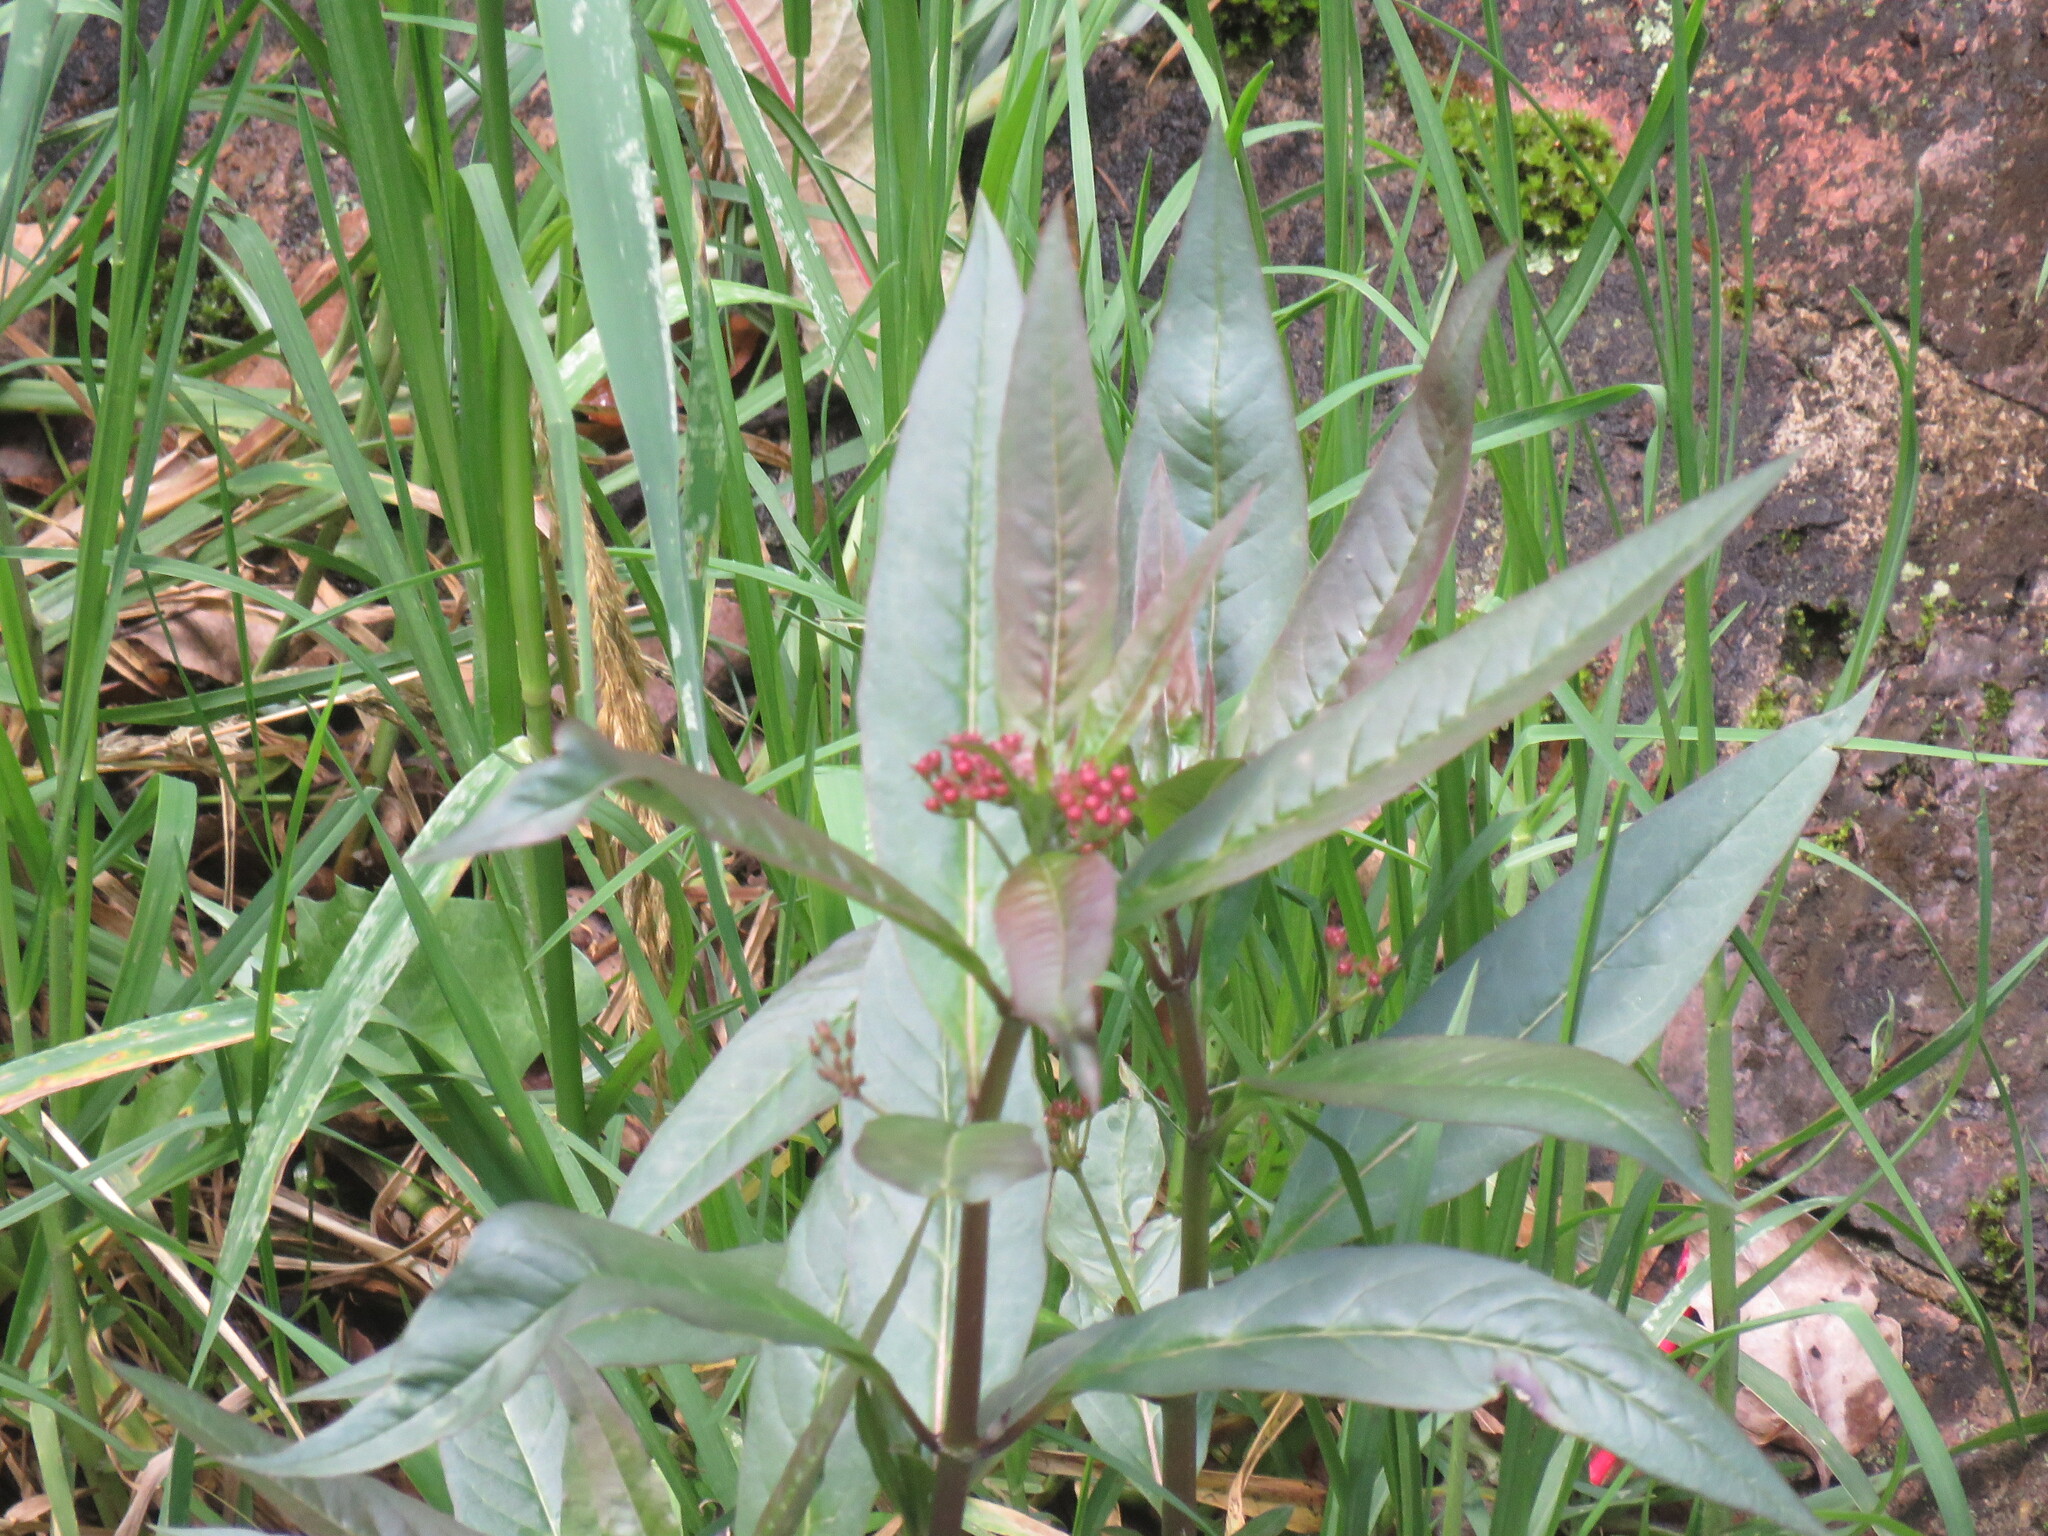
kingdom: Plantae
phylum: Tracheophyta
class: Magnoliopsida
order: Gentianales
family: Apocynaceae
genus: Asclepias
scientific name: Asclepias curassavica
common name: Bloodflower
